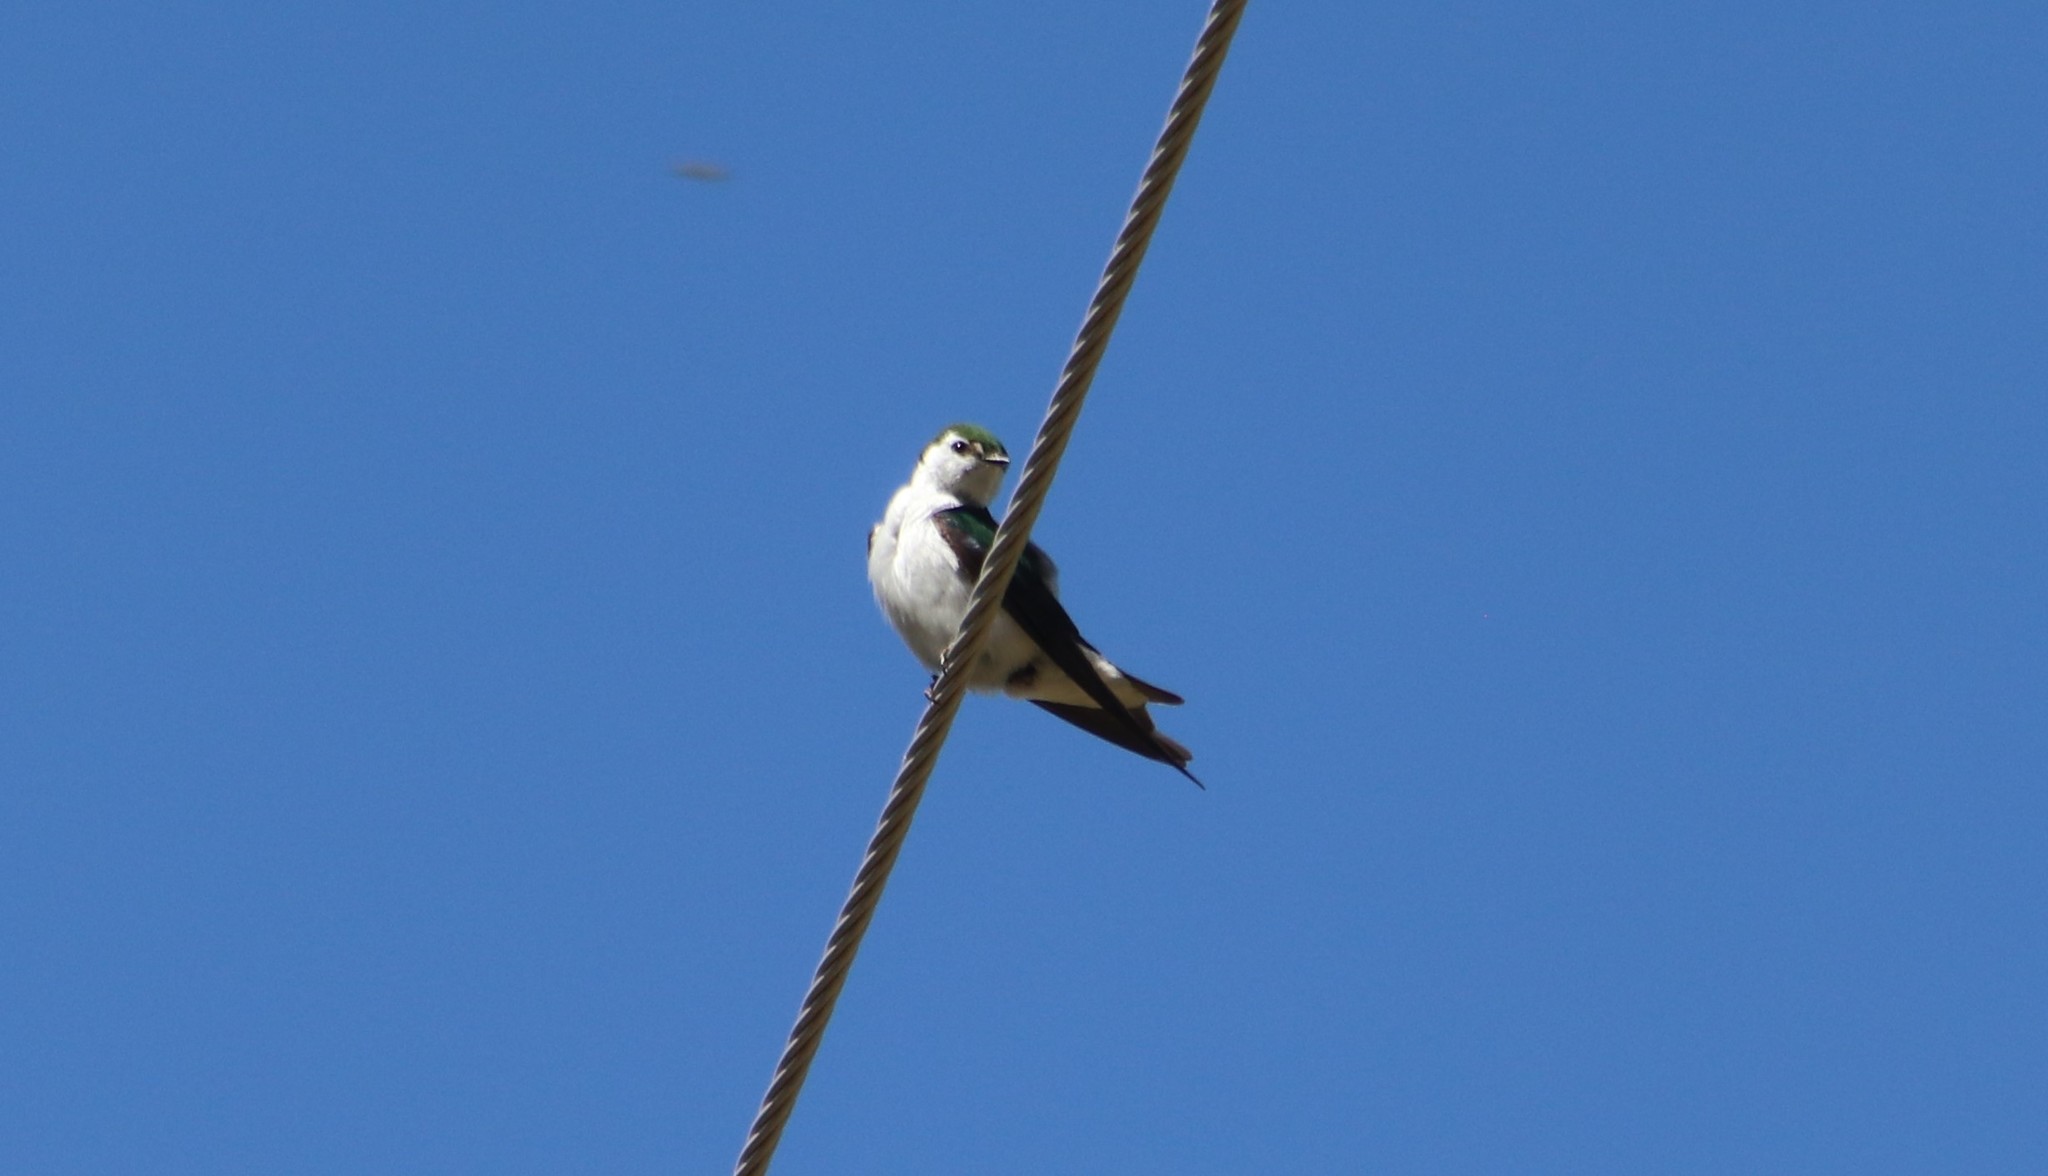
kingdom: Animalia
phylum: Chordata
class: Aves
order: Passeriformes
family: Hirundinidae
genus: Tachycineta
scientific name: Tachycineta thalassina
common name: Violet-green swallow
